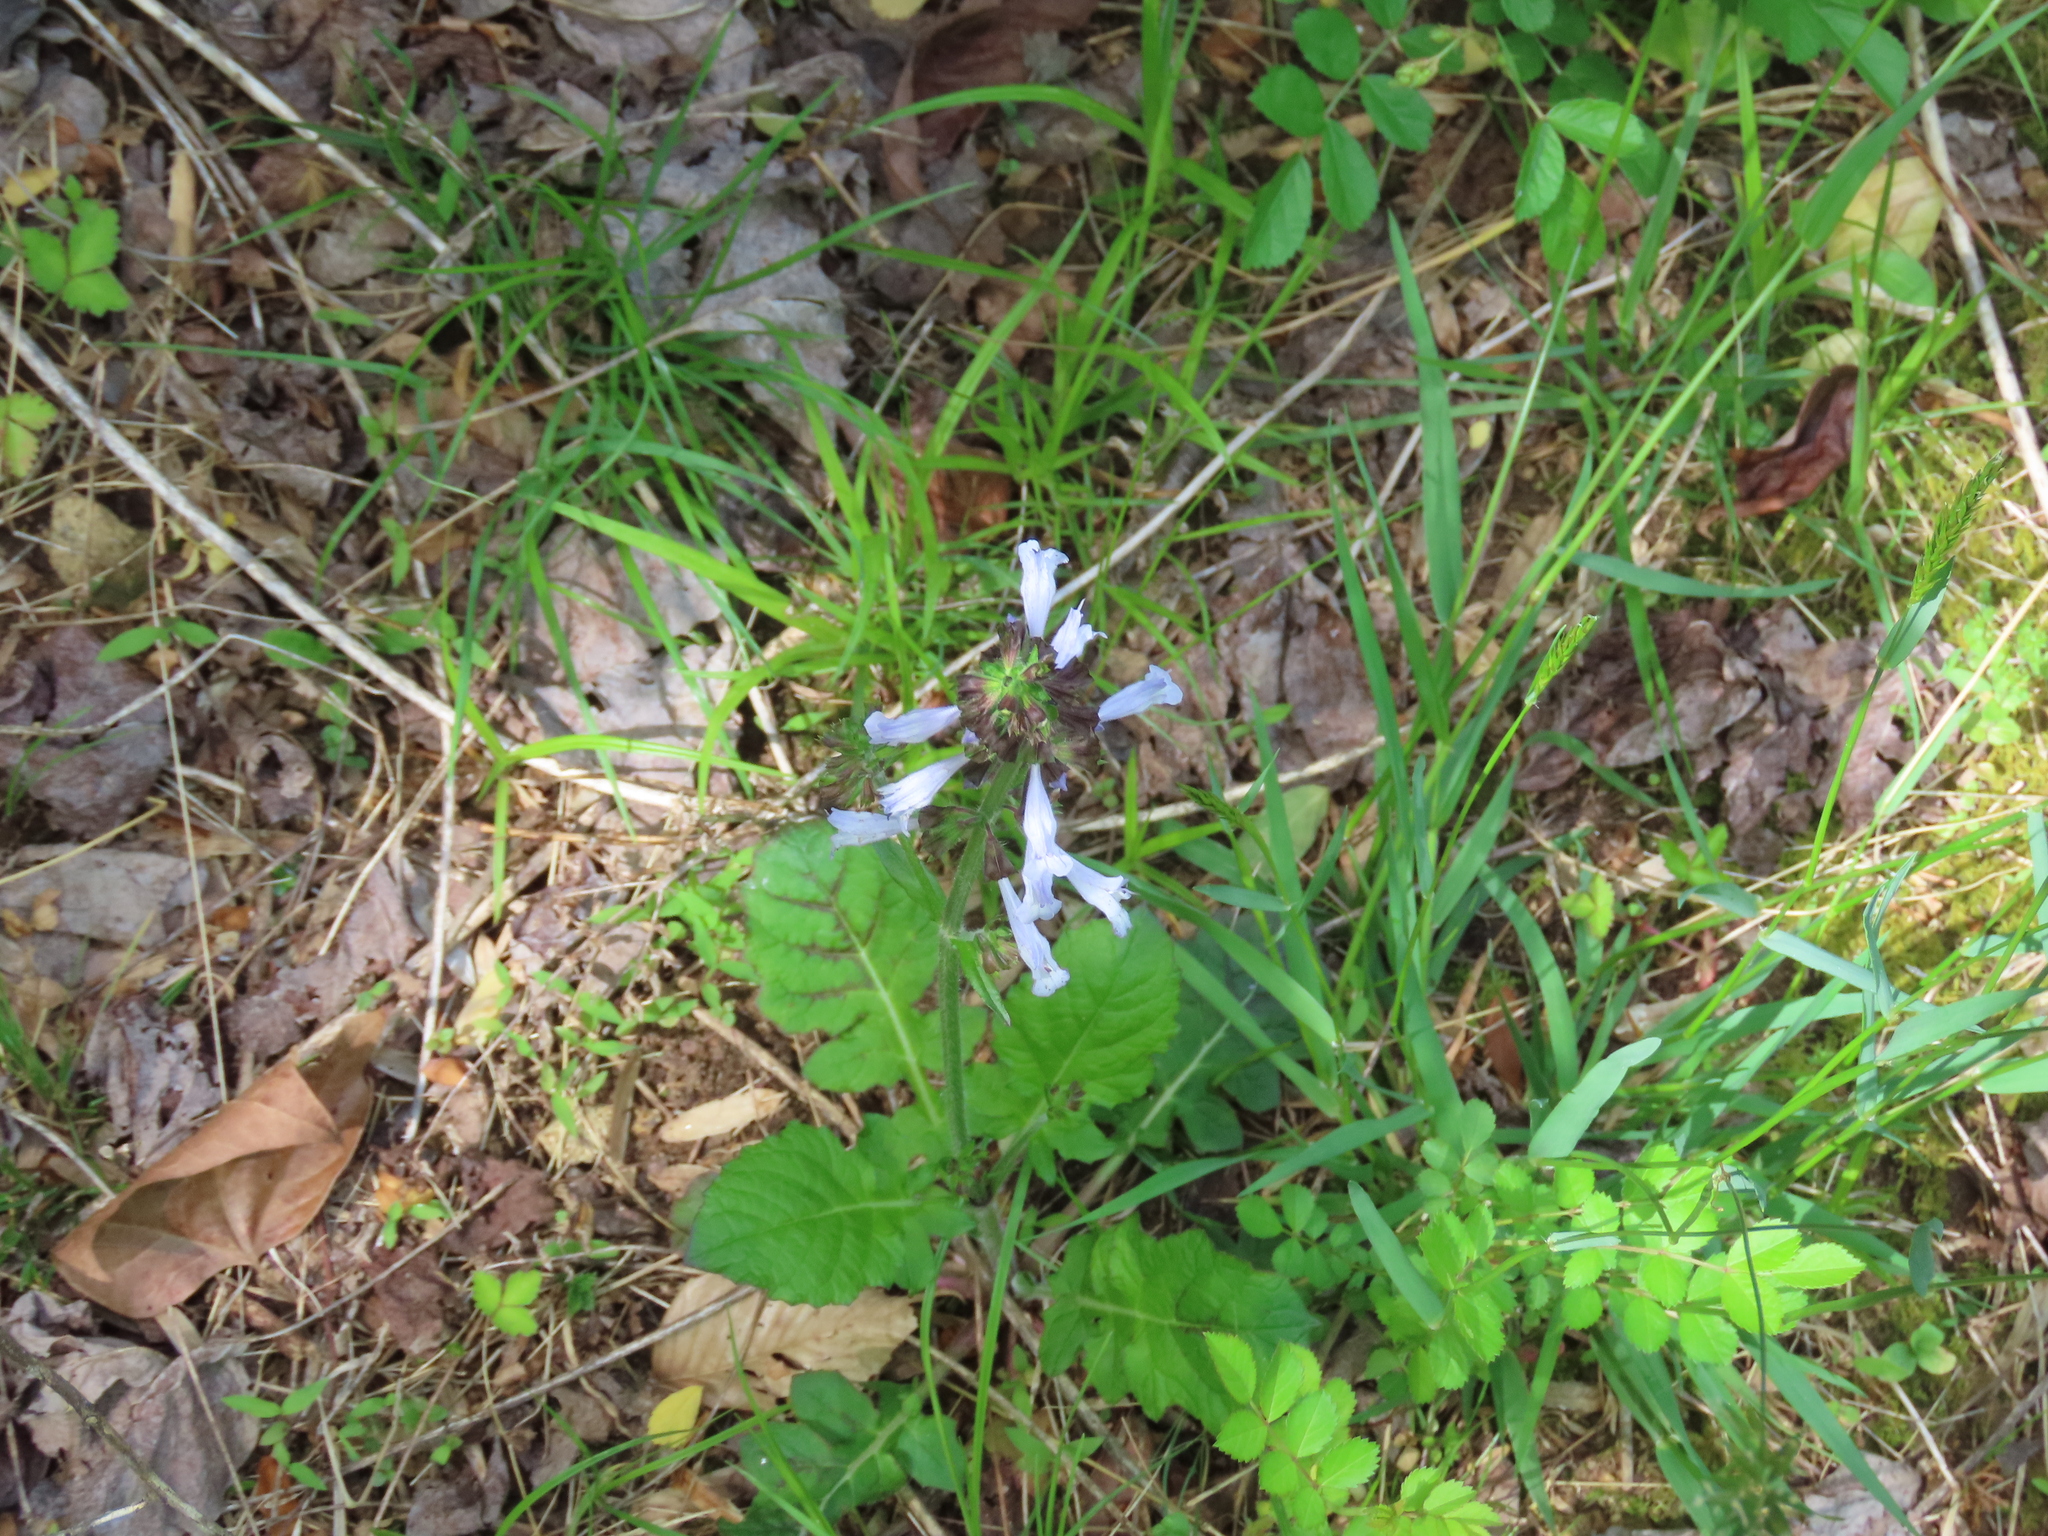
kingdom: Plantae
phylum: Tracheophyta
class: Magnoliopsida
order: Lamiales
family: Lamiaceae
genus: Salvia
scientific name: Salvia lyrata
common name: Cancerweed
